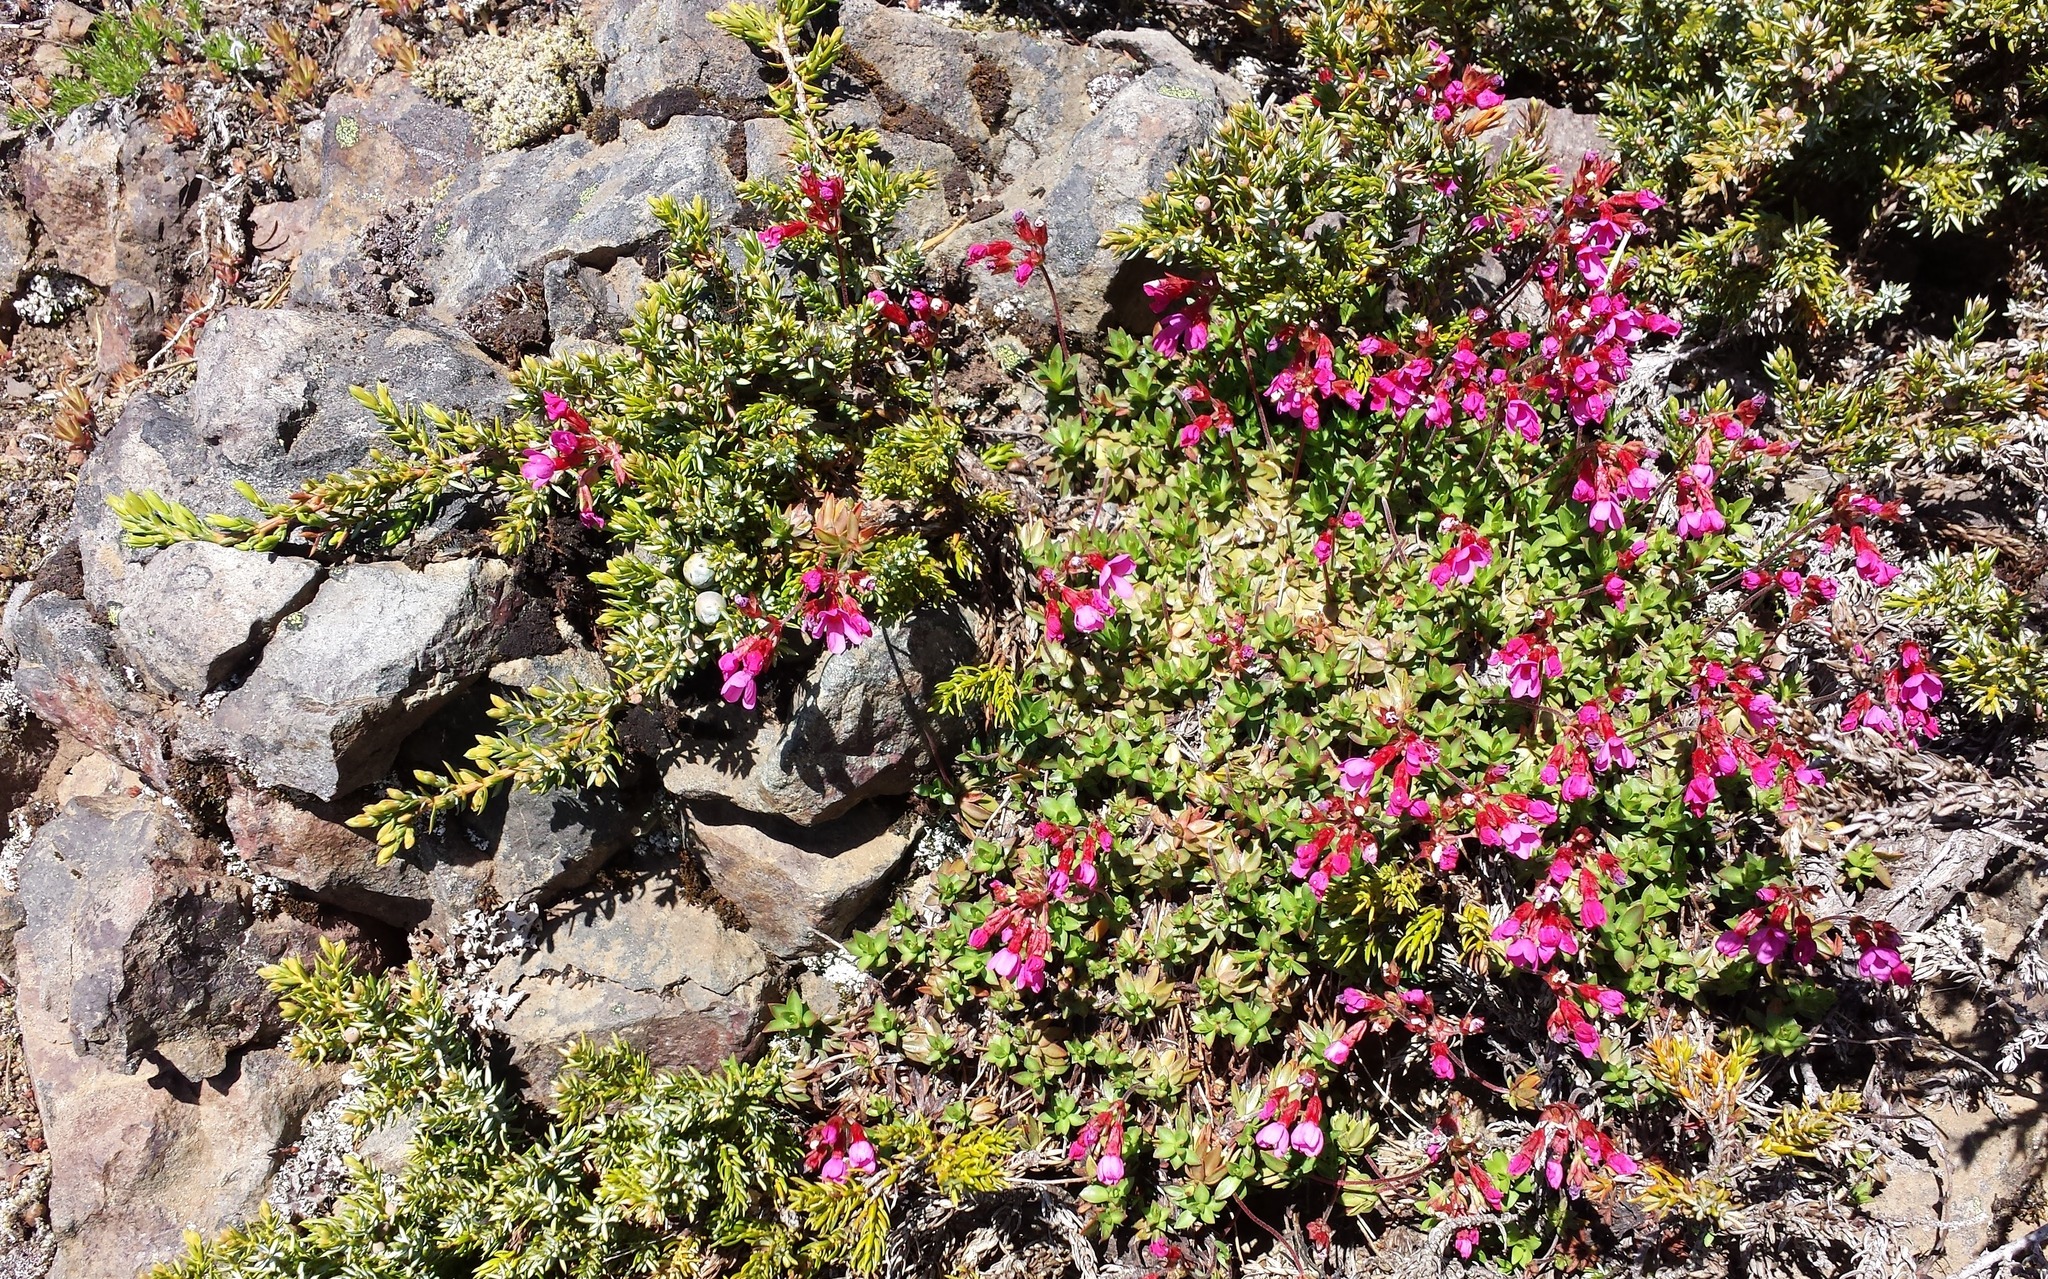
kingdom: Plantae
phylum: Tracheophyta
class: Magnoliopsida
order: Ericales
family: Primulaceae
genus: Androsace
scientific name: Androsace laevigata
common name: Cliff dwarf-primrose
